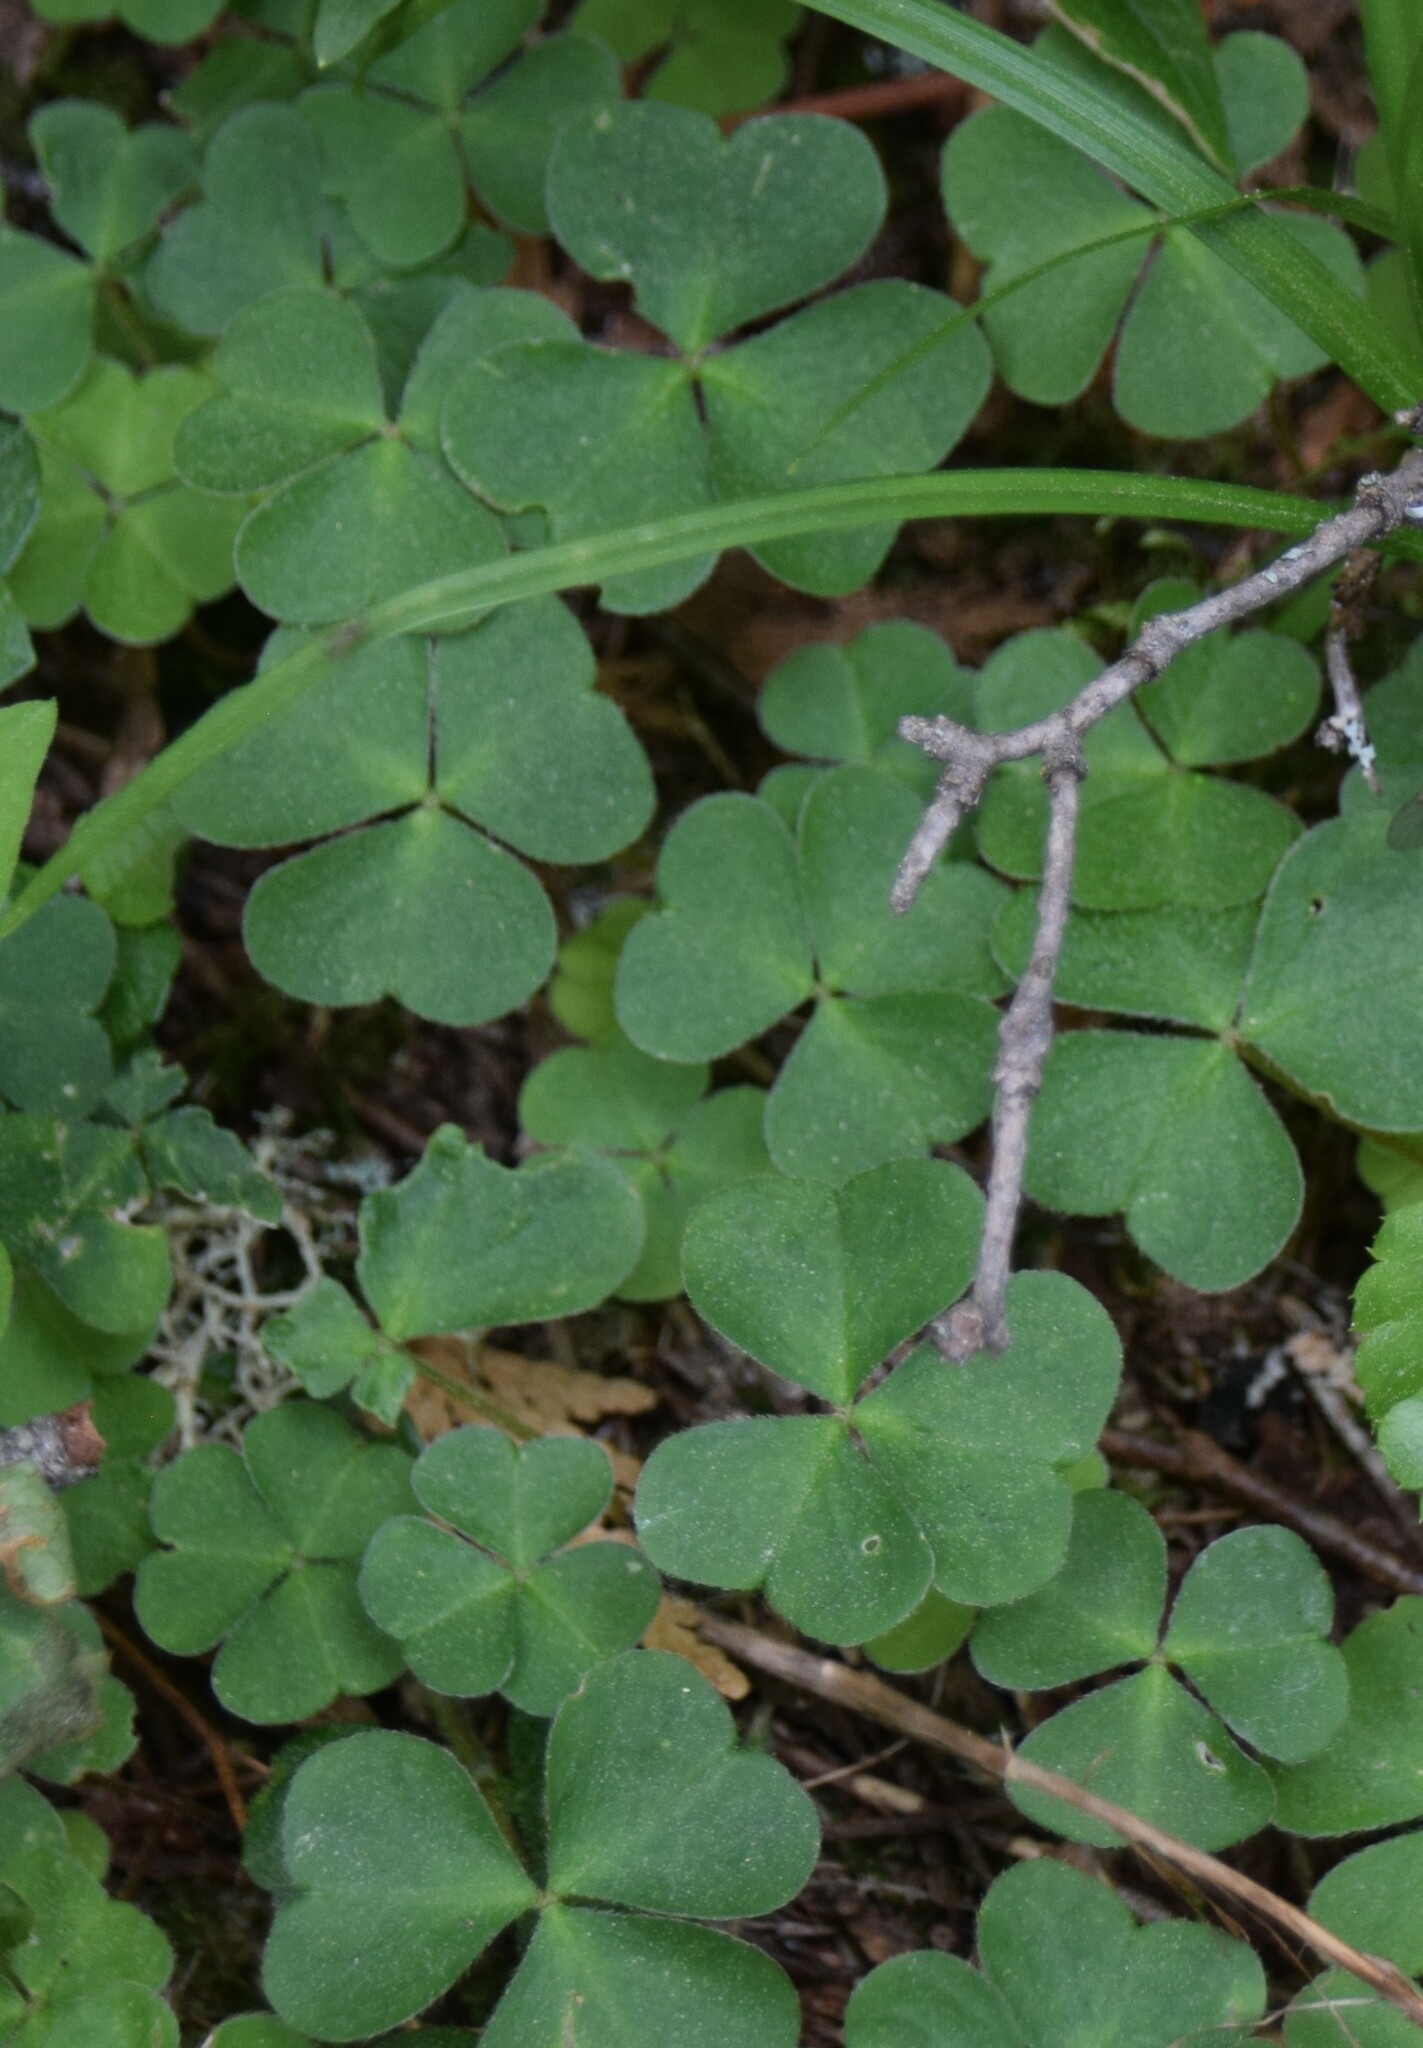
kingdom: Plantae
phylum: Tracheophyta
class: Magnoliopsida
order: Oxalidales
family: Oxalidaceae
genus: Oxalis
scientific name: Oxalis montana
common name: American wood-sorrel
